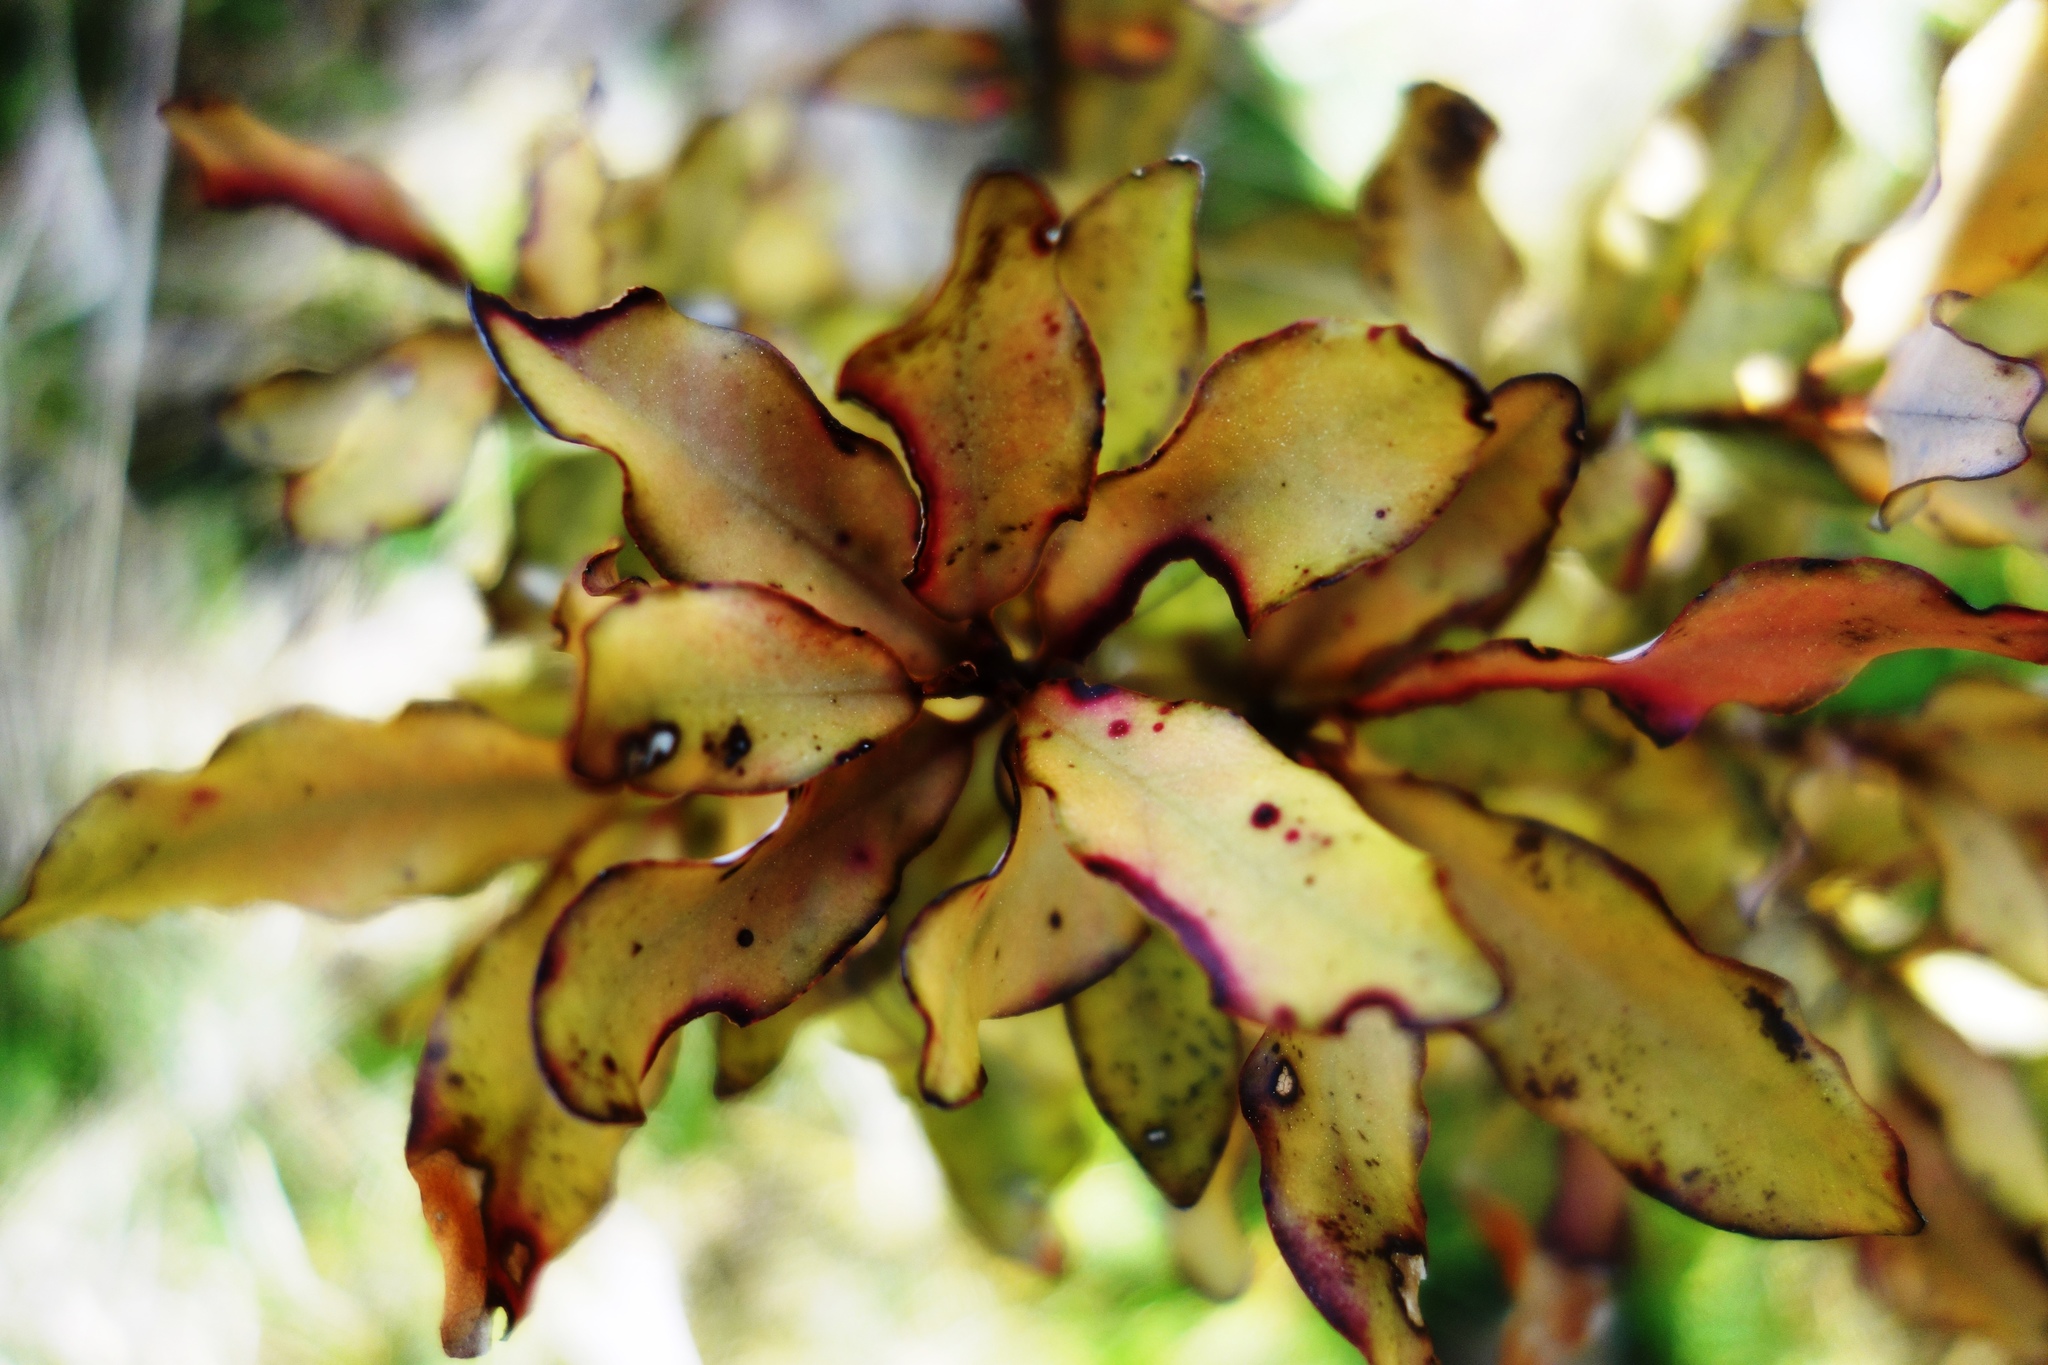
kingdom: Plantae
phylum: Tracheophyta
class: Magnoliopsida
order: Canellales
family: Winteraceae
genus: Pseudowintera
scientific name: Pseudowintera colorata
